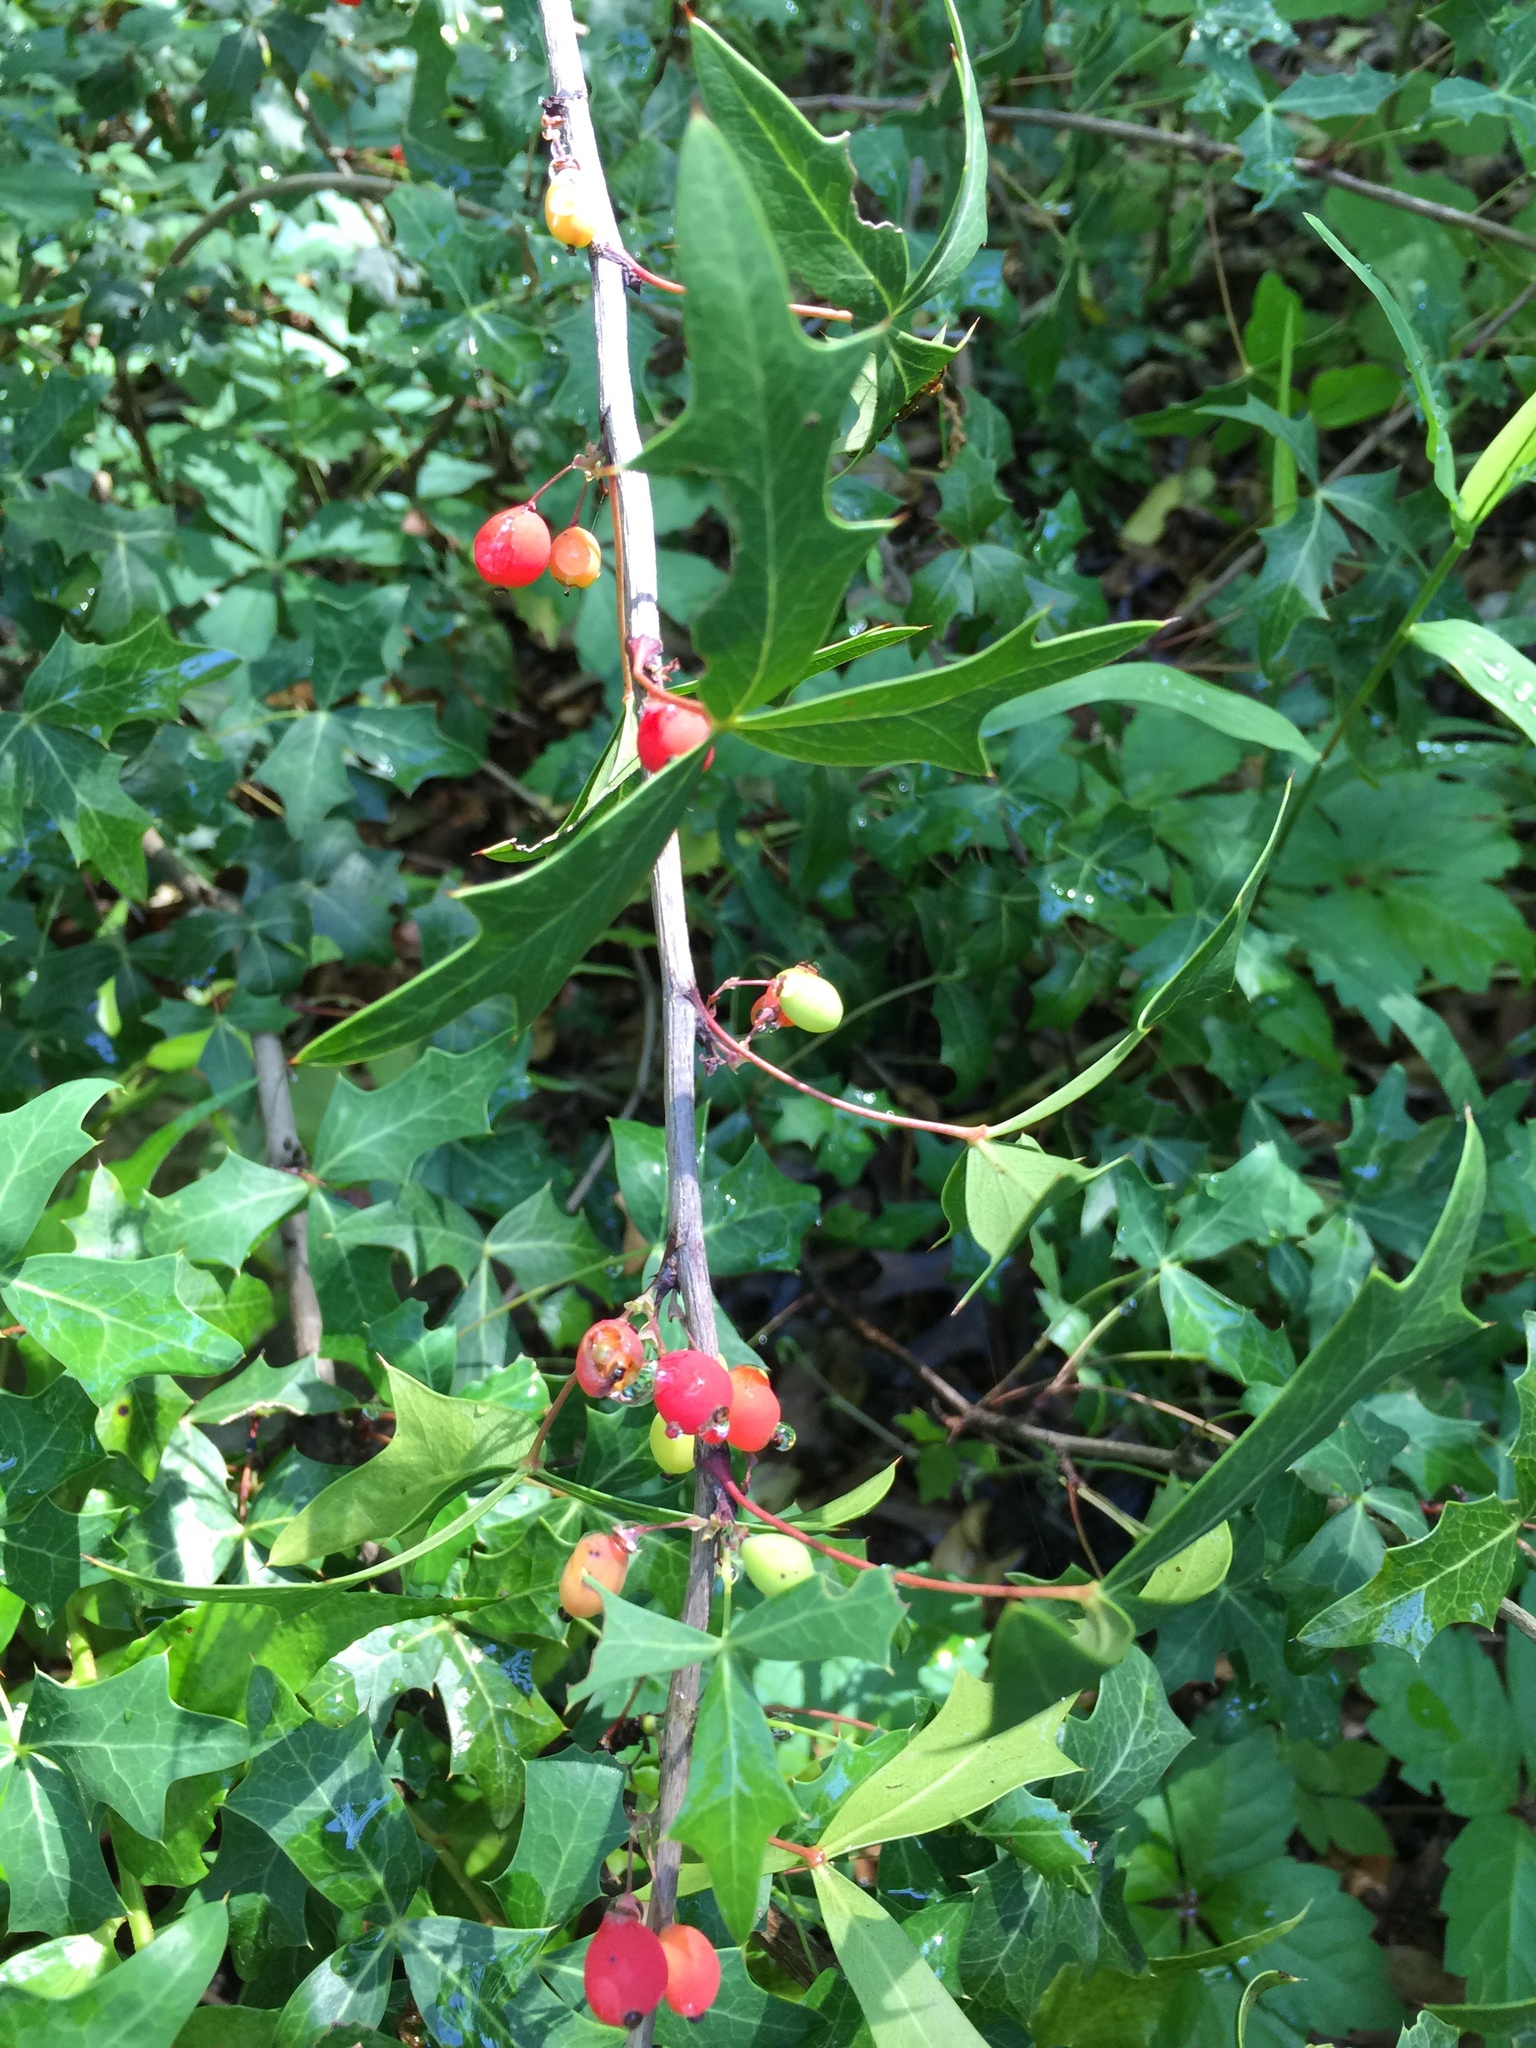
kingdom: Plantae
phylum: Tracheophyta
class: Magnoliopsida
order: Ranunculales
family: Berberidaceae
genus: Alloberberis
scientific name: Alloberberis trifoliolata
